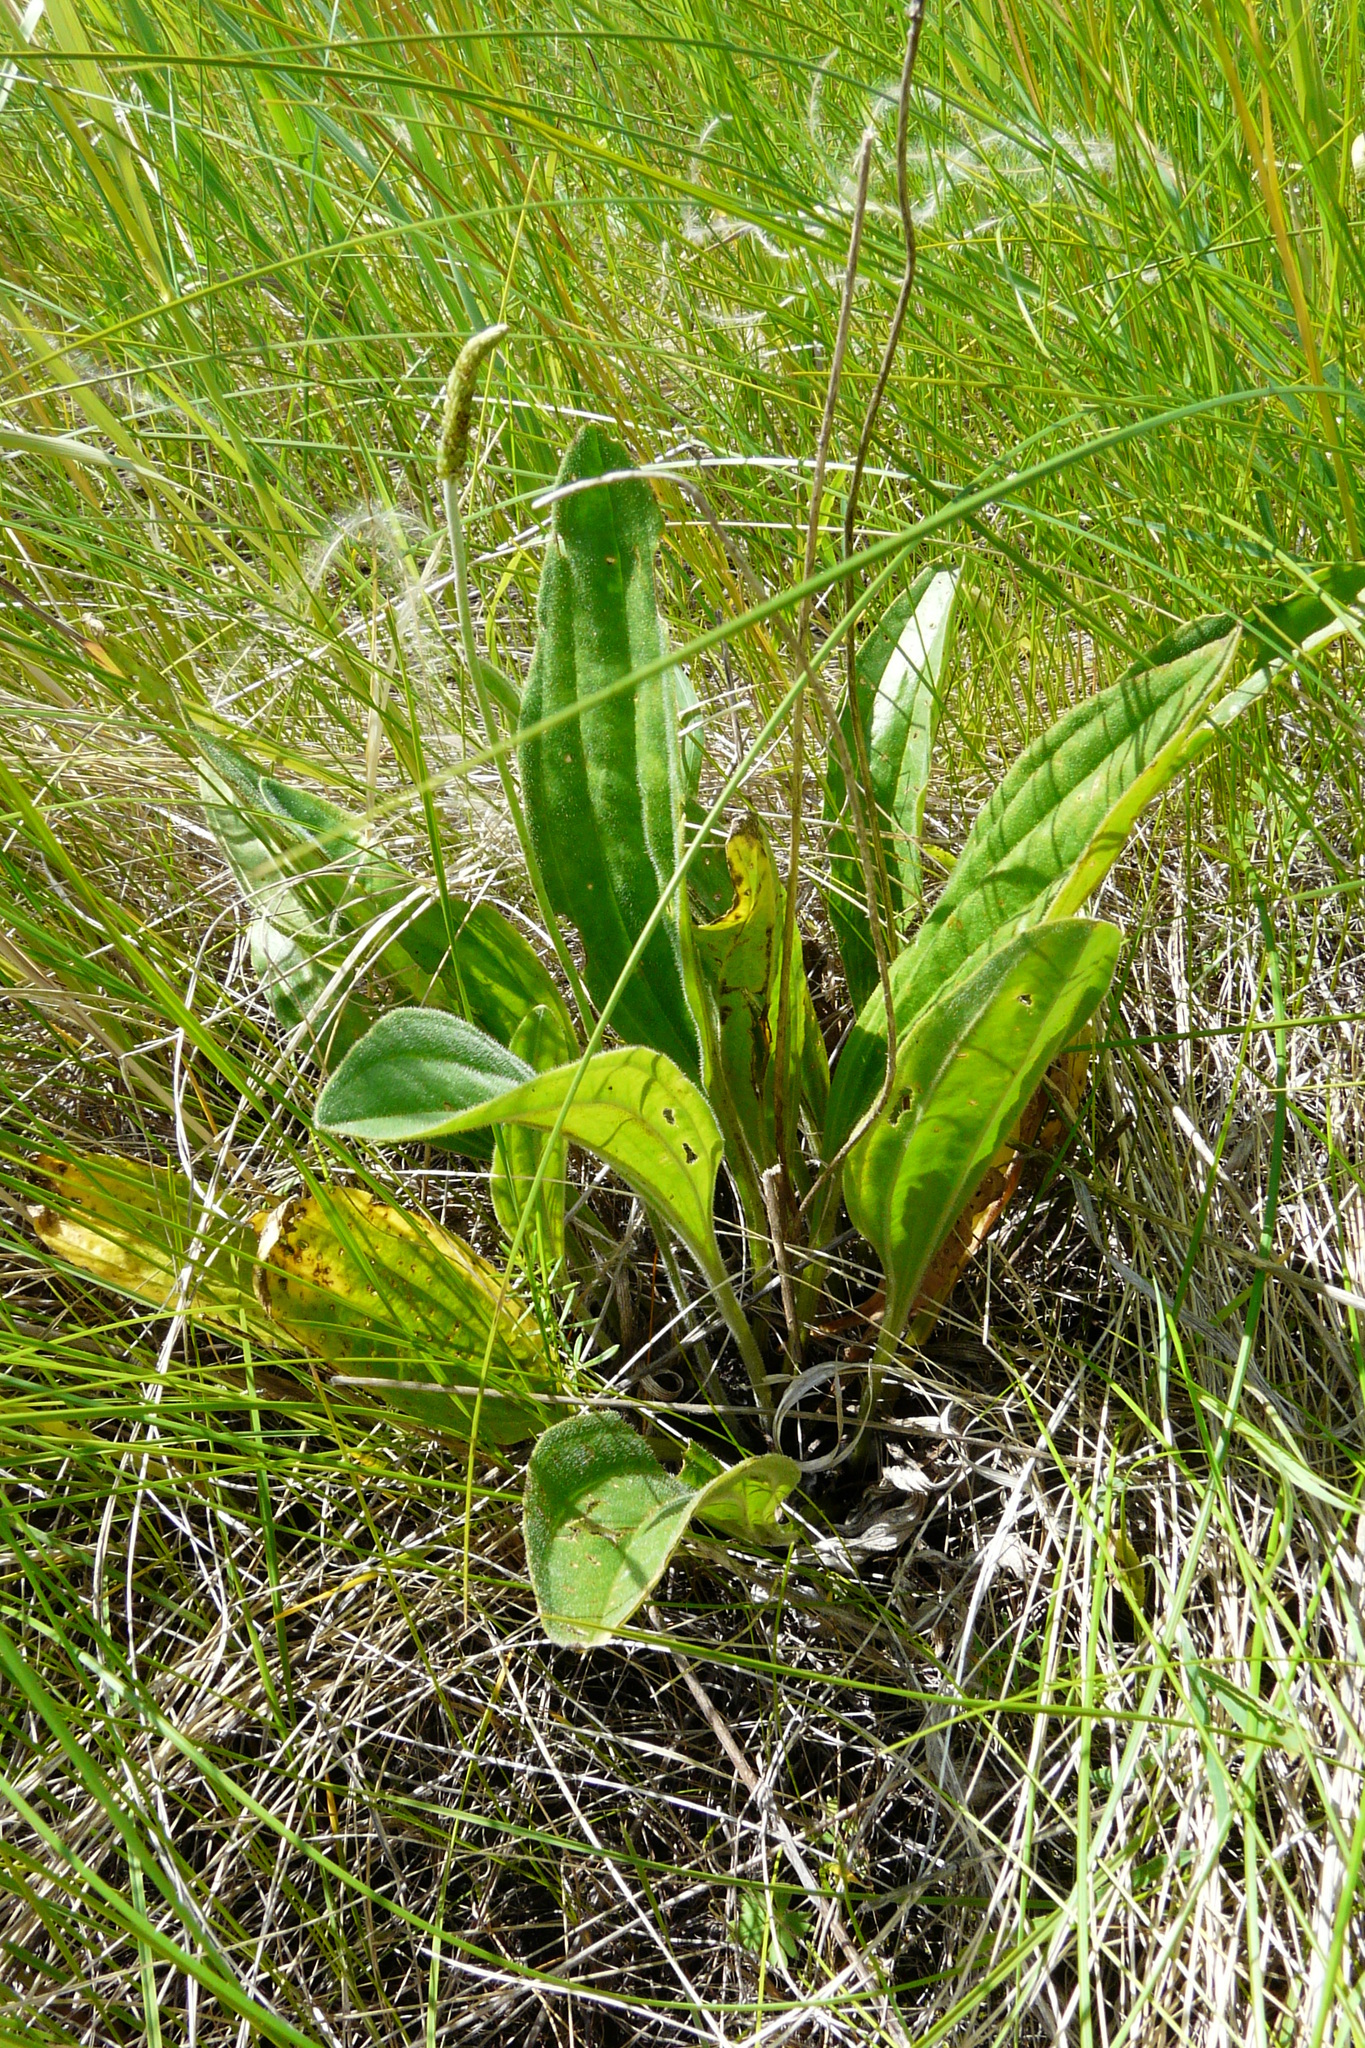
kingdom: Plantae
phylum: Tracheophyta
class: Magnoliopsida
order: Lamiales
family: Plantaginaceae
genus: Plantago
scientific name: Plantago urvillei
